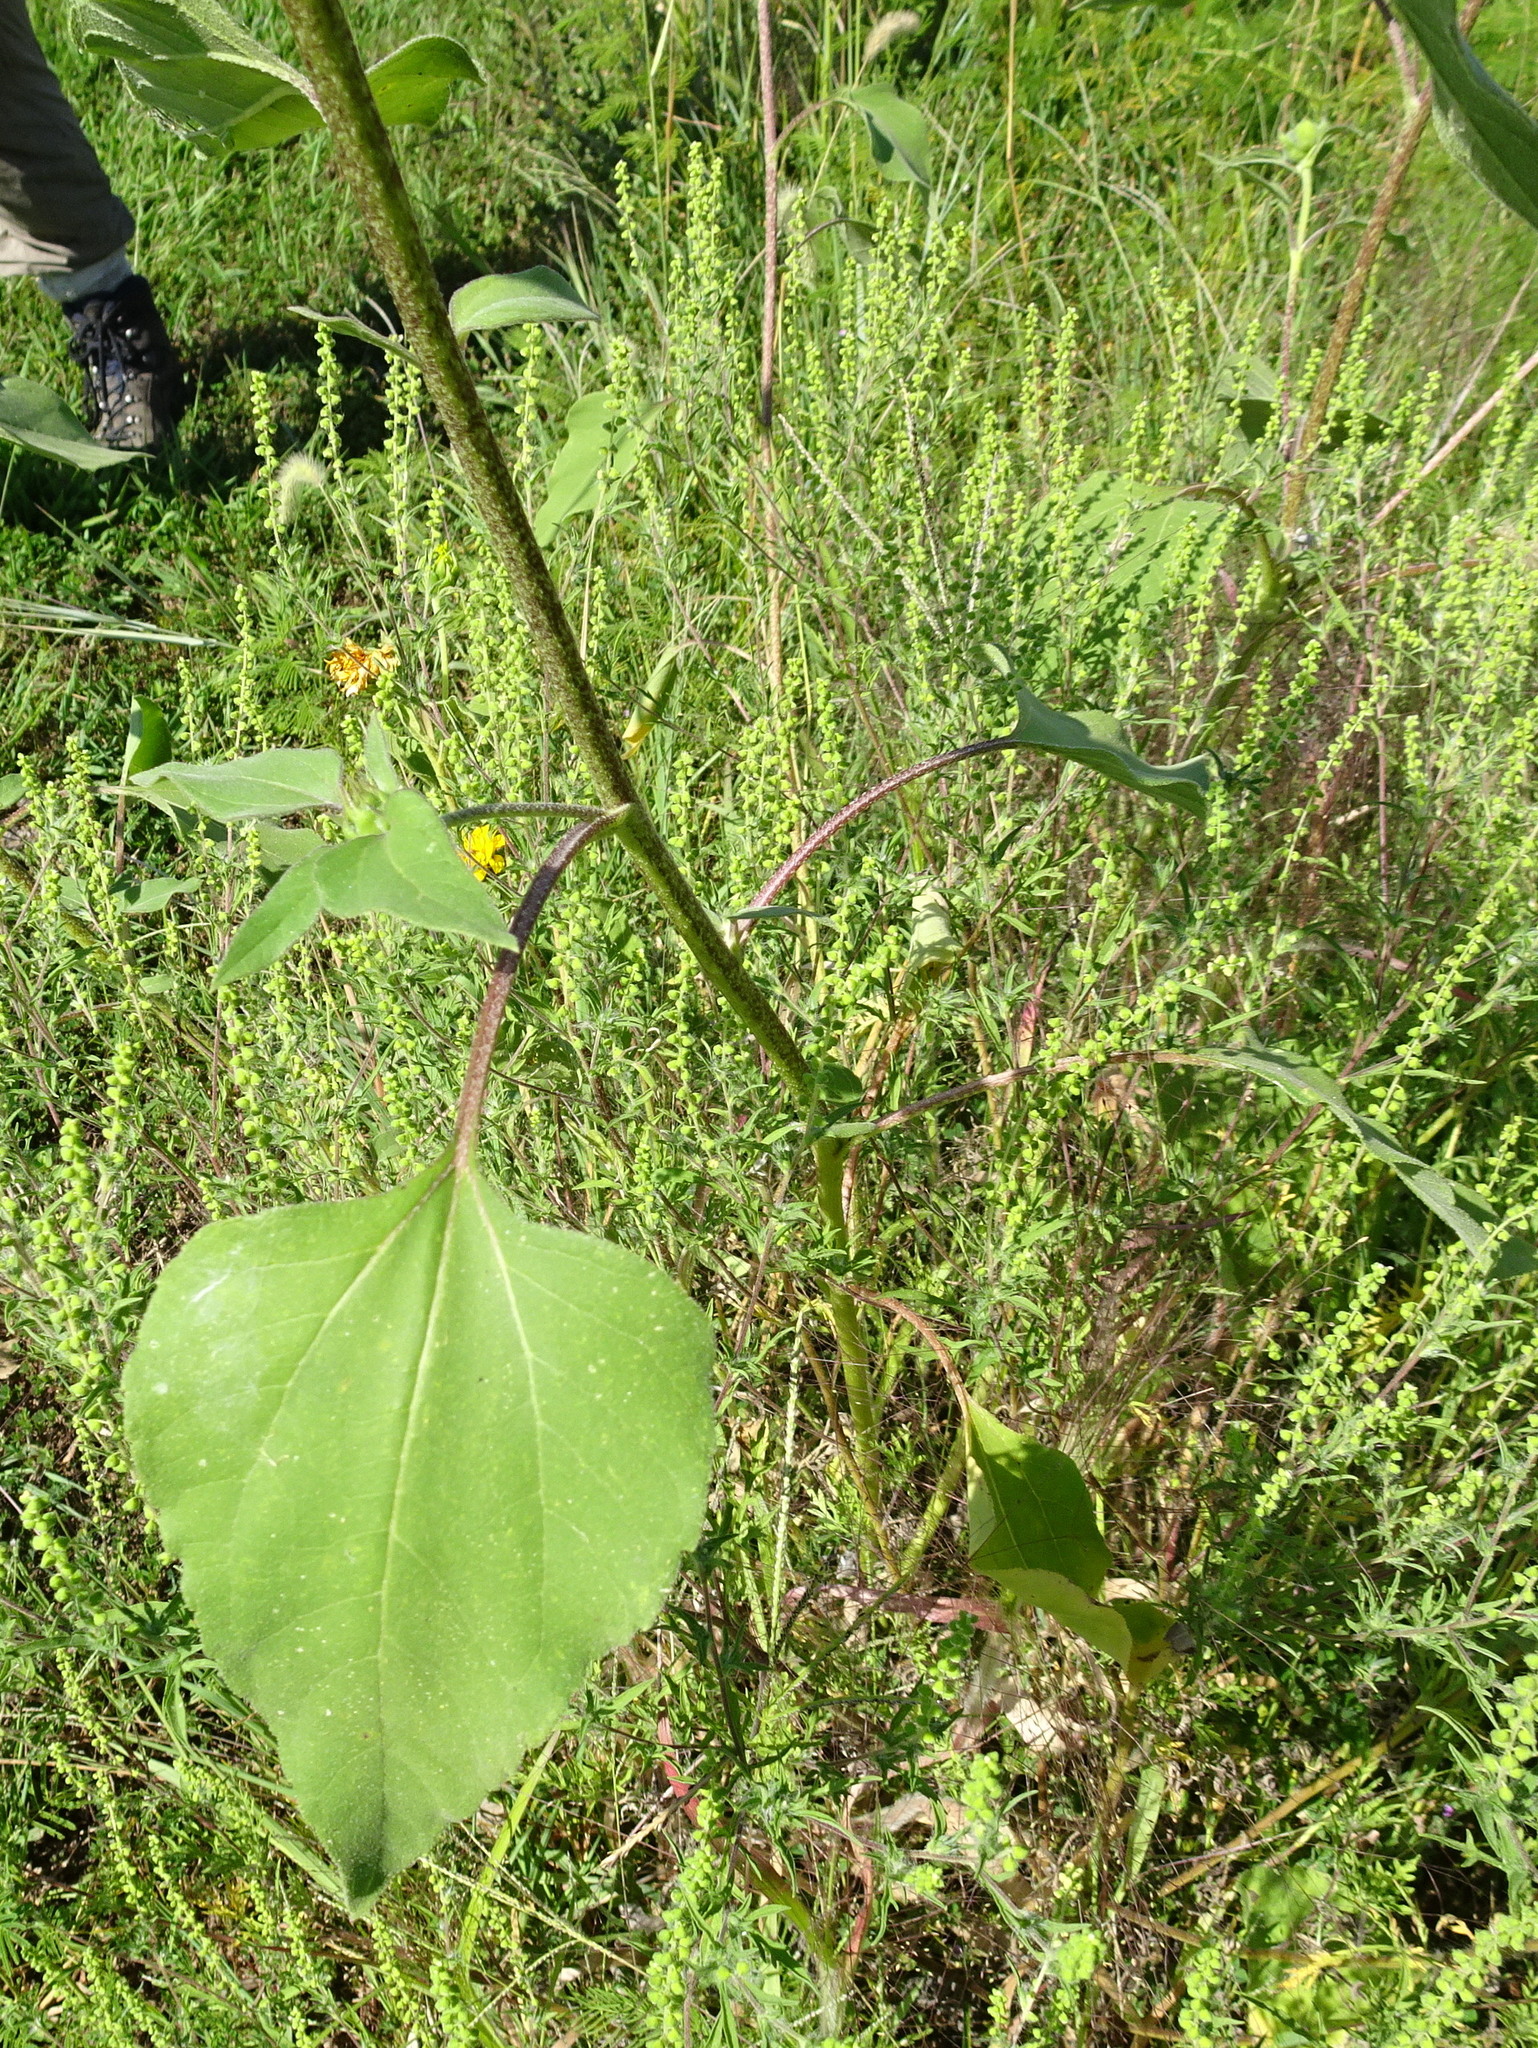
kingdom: Plantae
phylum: Tracheophyta
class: Magnoliopsida
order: Asterales
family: Asteraceae
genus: Helianthus
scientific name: Helianthus annuus
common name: Sunflower
